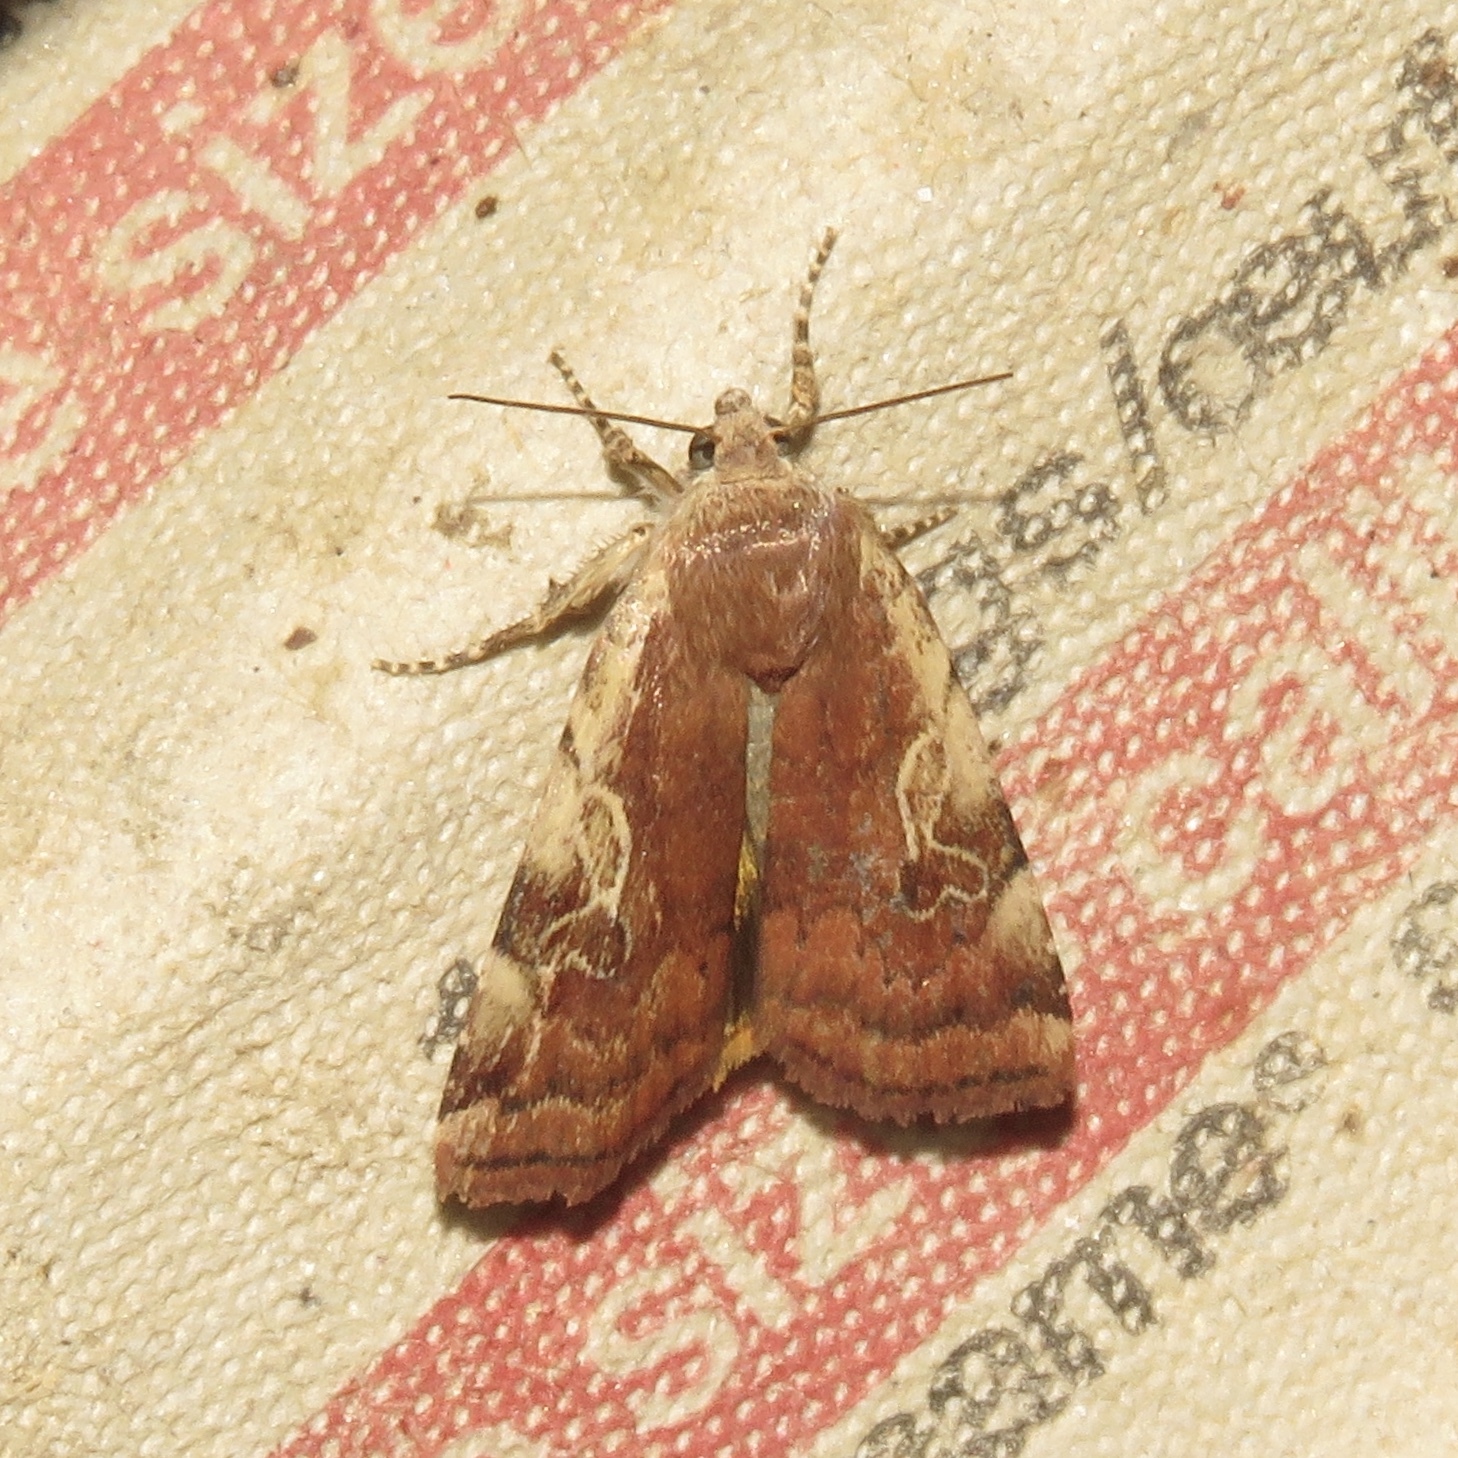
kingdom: Animalia
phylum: Arthropoda
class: Insecta
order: Lepidoptera
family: Noctuidae
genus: Cryptocala
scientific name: Cryptocala acadiensis
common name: Catocaline dart
